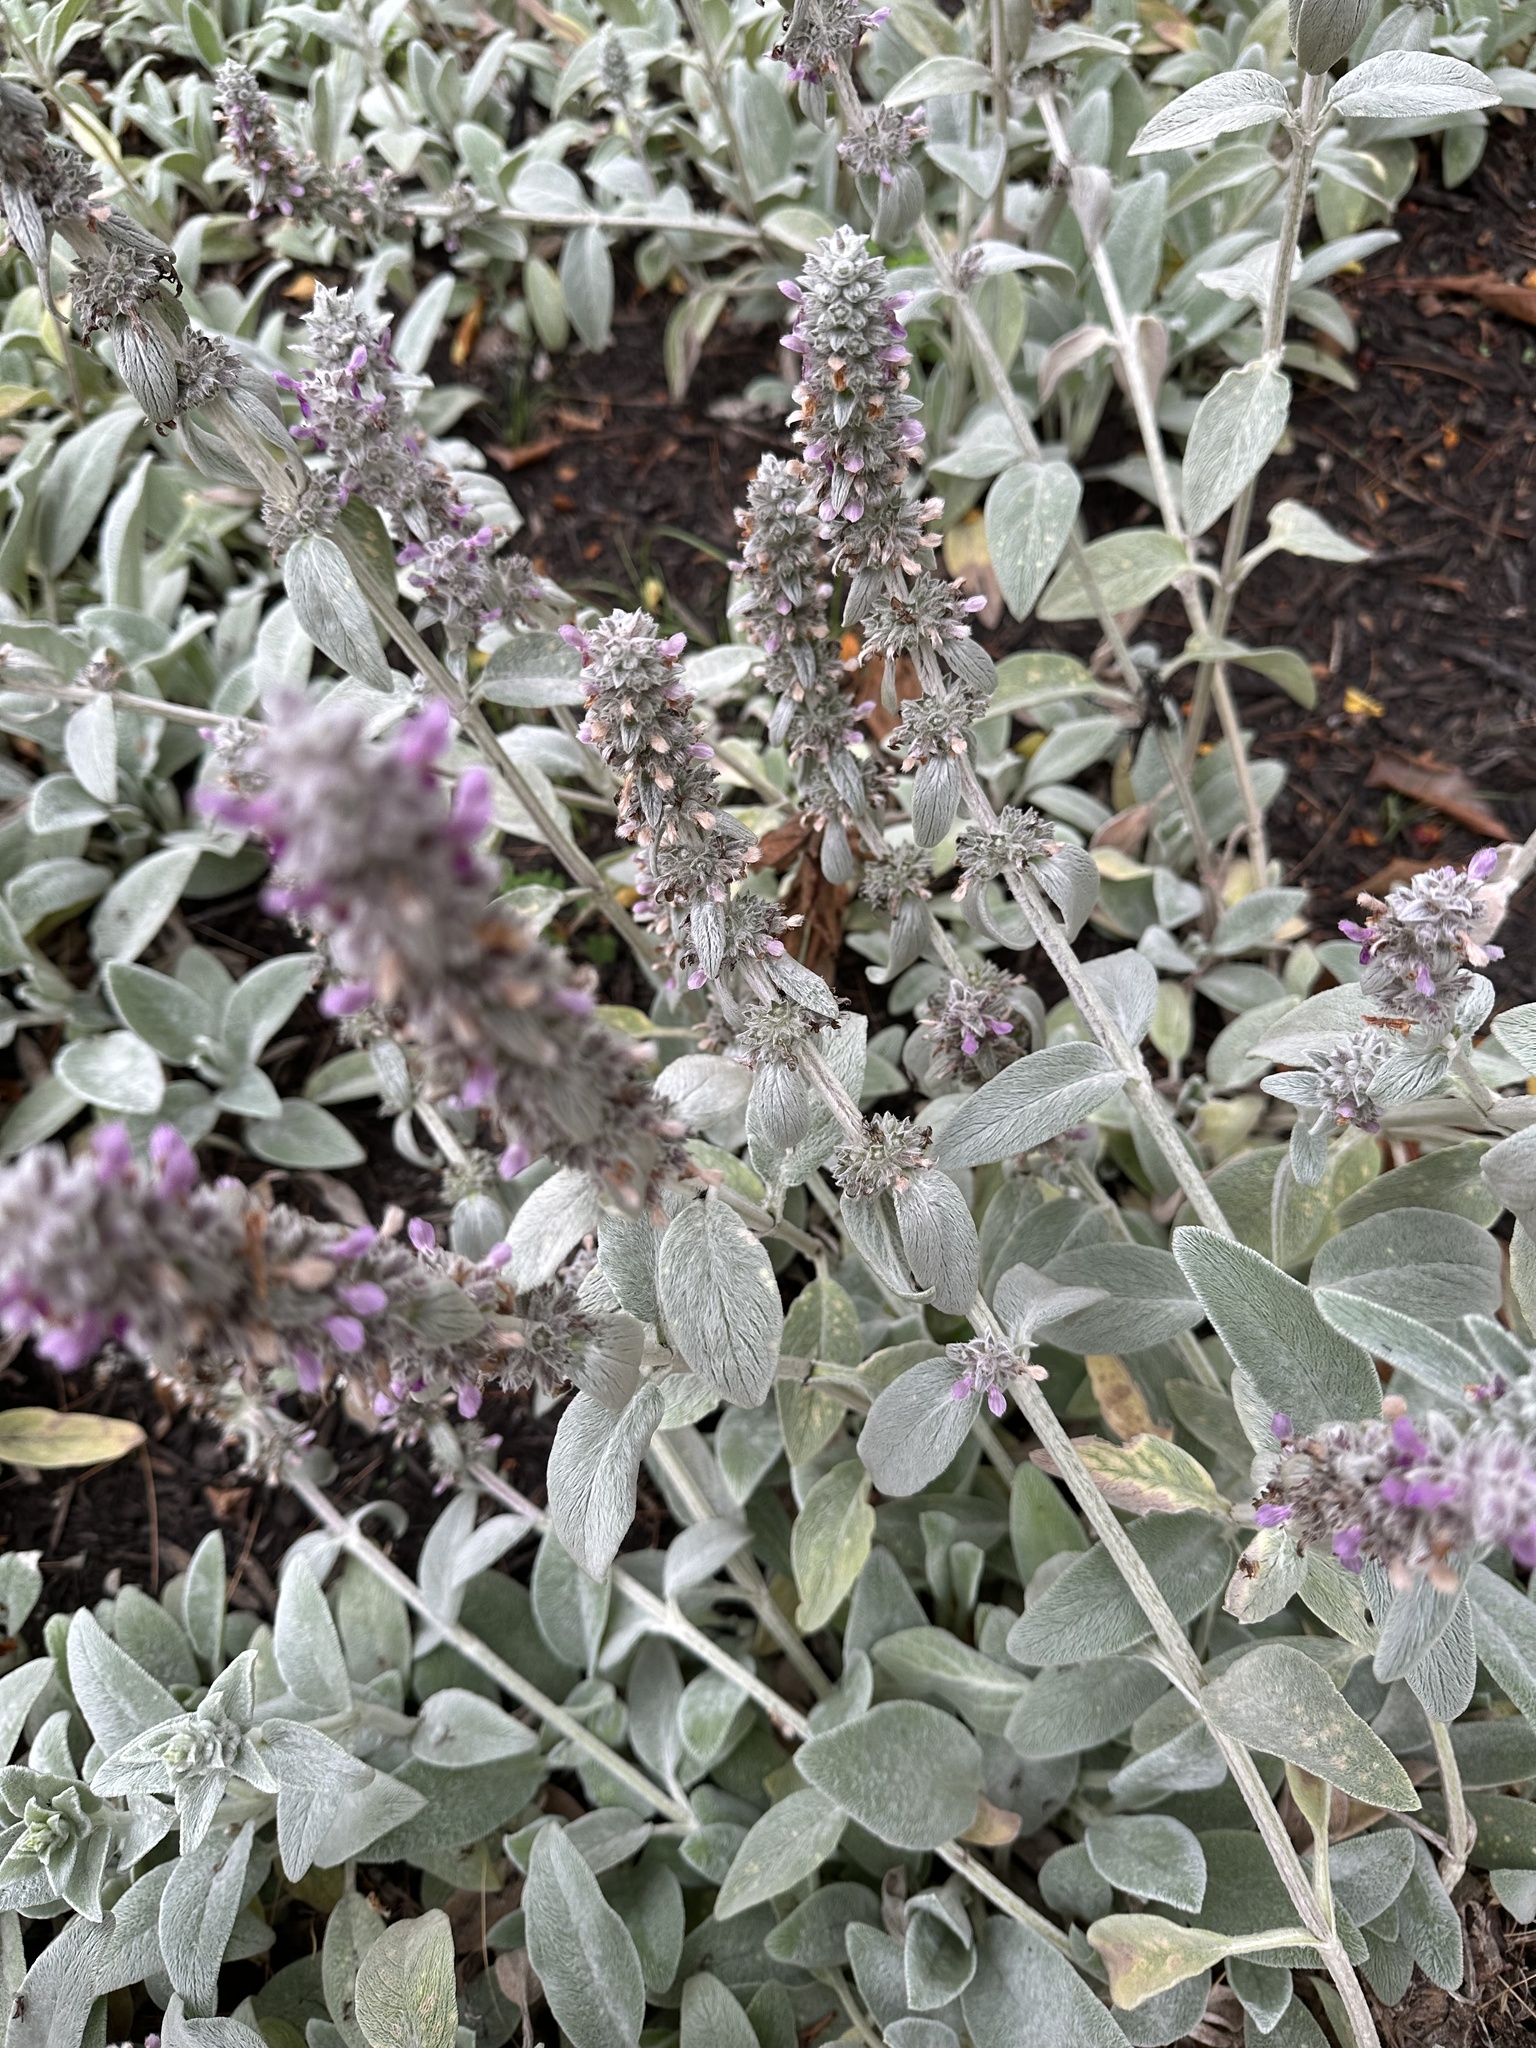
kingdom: Plantae
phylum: Tracheophyta
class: Magnoliopsida
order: Lamiales
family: Lamiaceae
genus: Stachys
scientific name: Stachys byzantina
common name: Lamb's-ear
